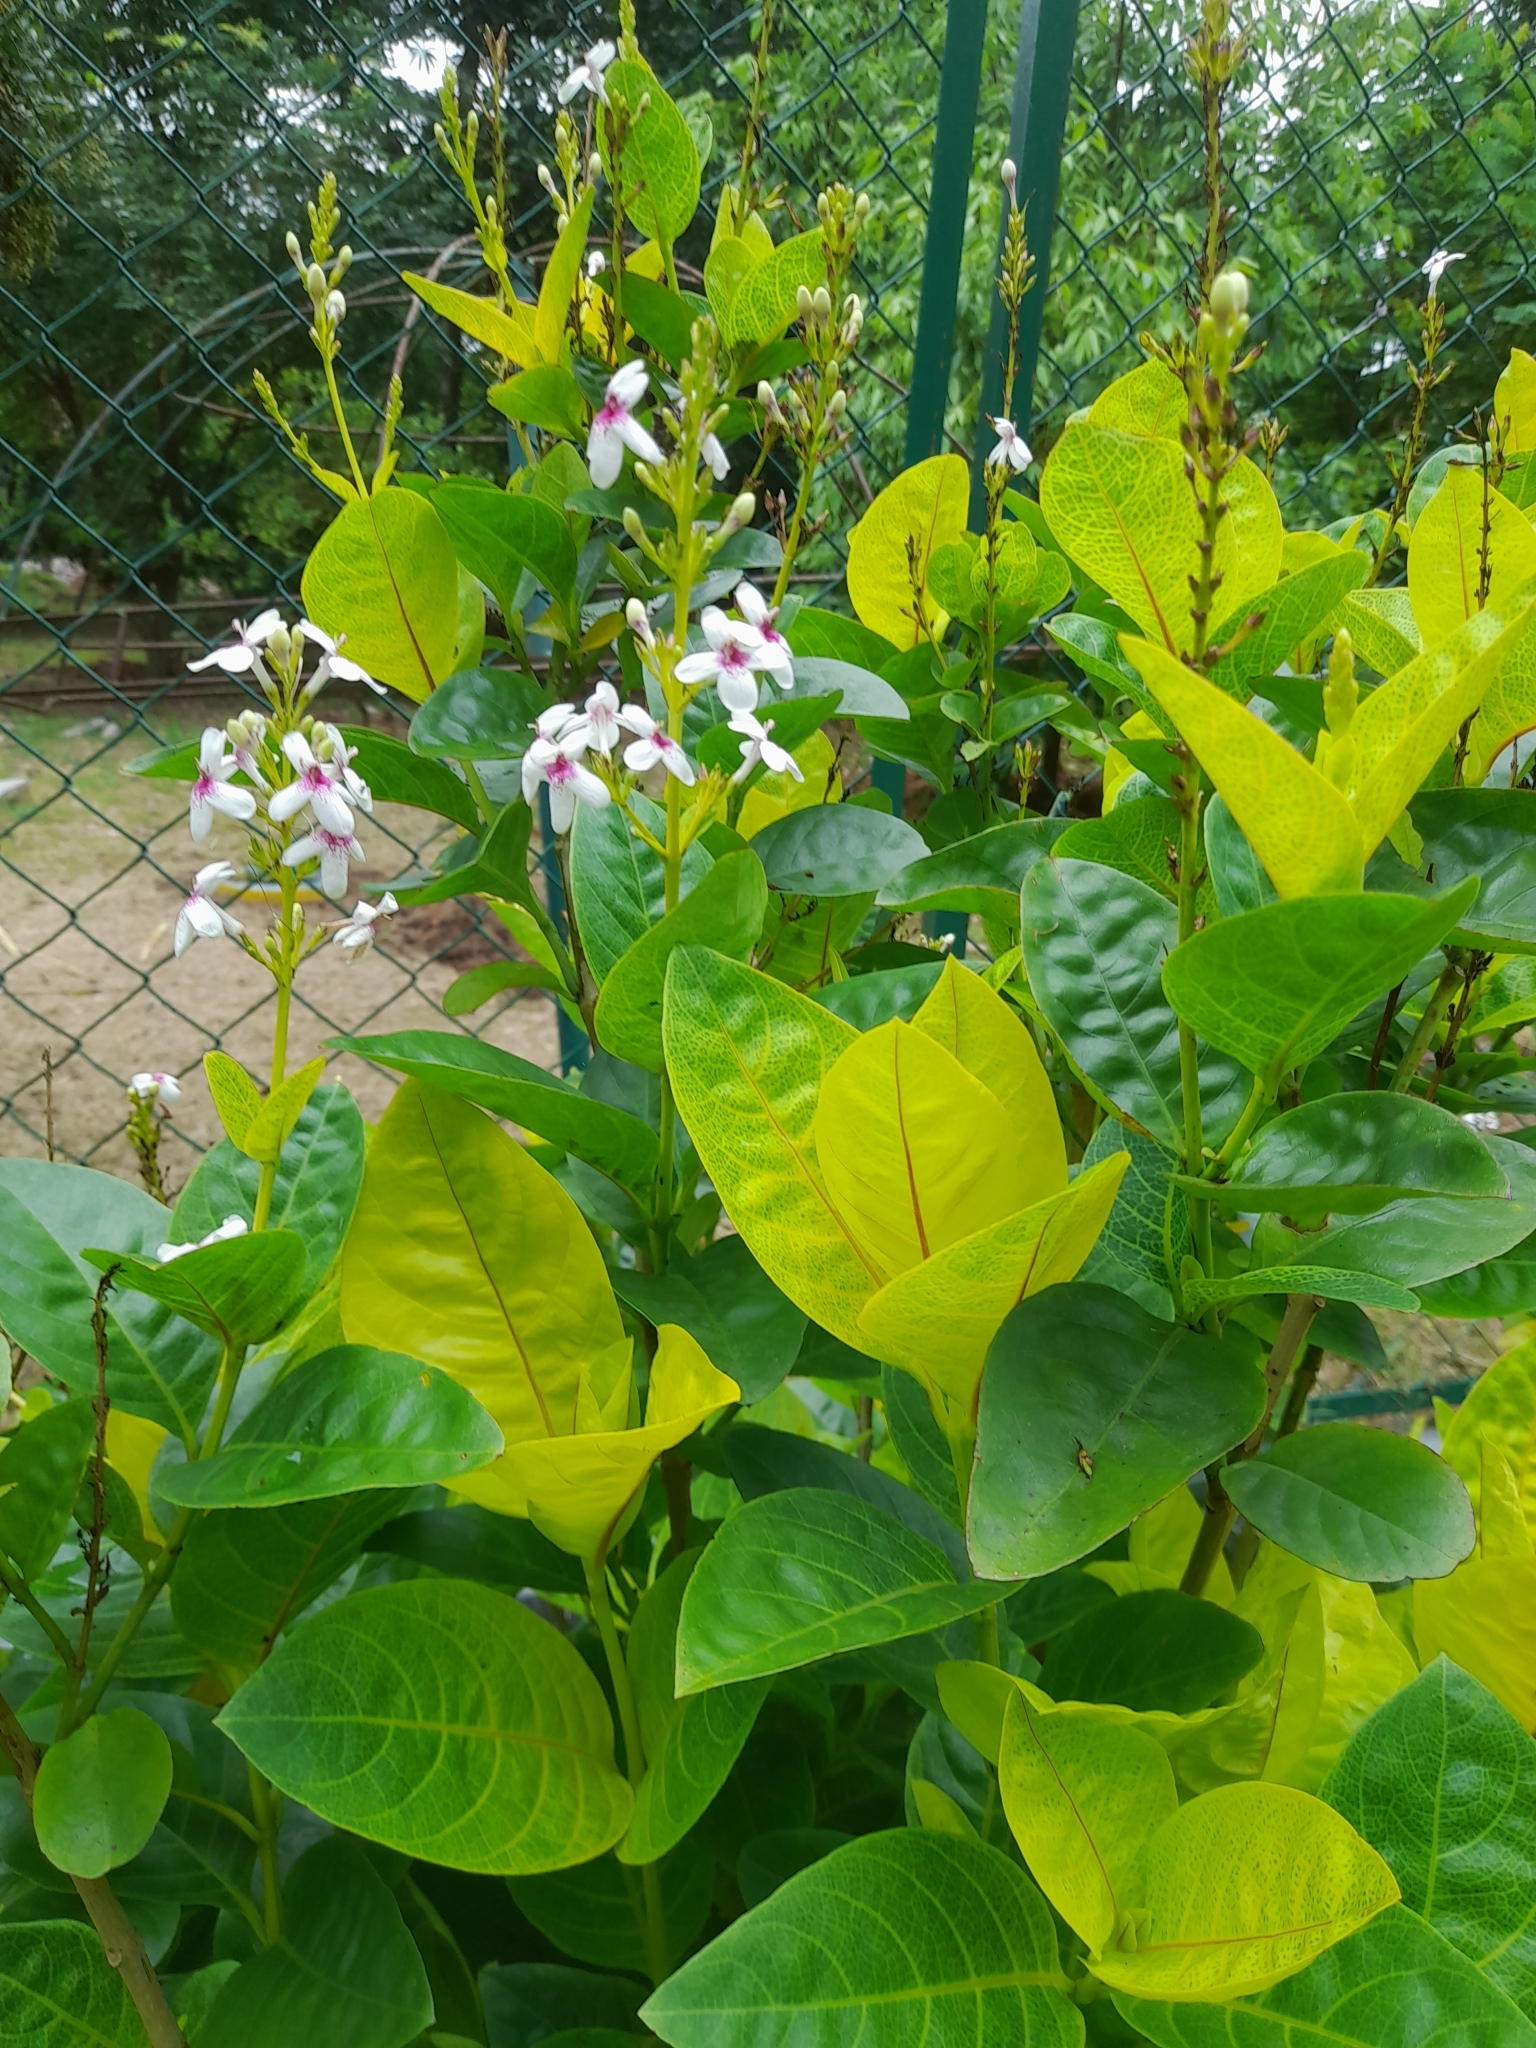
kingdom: Plantae
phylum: Tracheophyta
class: Magnoliopsida
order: Lamiales
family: Acanthaceae
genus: Pseuderanthemum
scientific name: Pseuderanthemum maculatum
